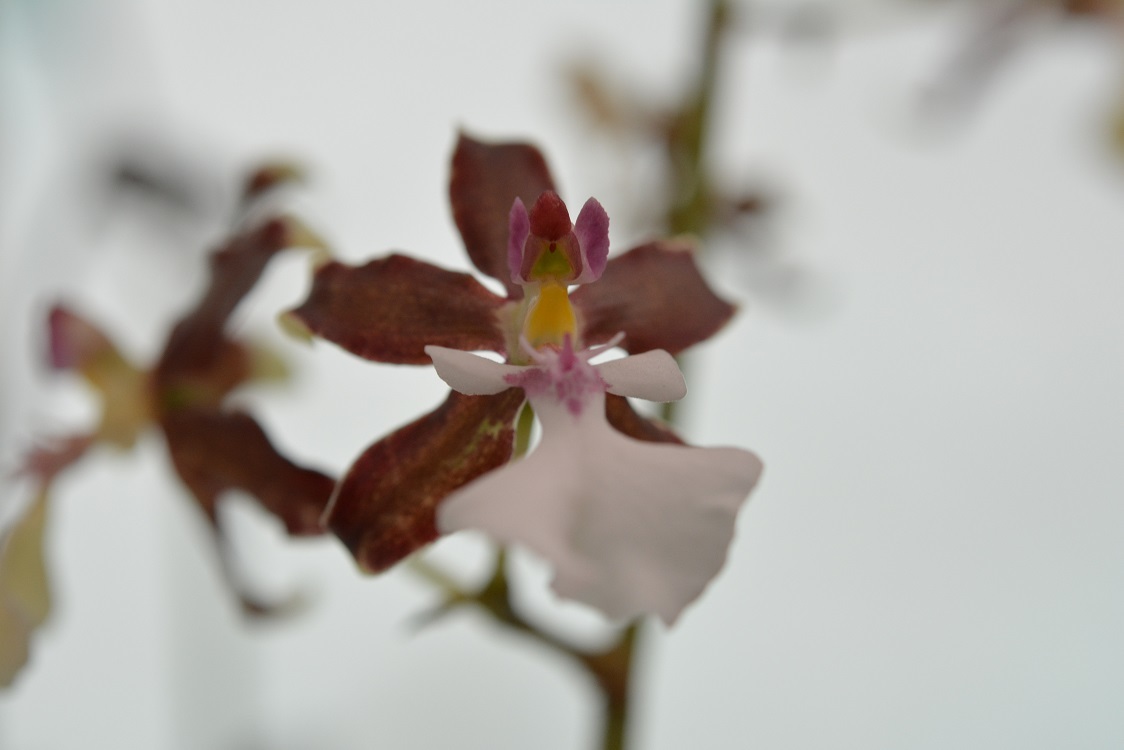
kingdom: Plantae
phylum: Tracheophyta
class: Liliopsida
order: Asparagales
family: Orchidaceae
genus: Oncidium
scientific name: Oncidium leucochilum
